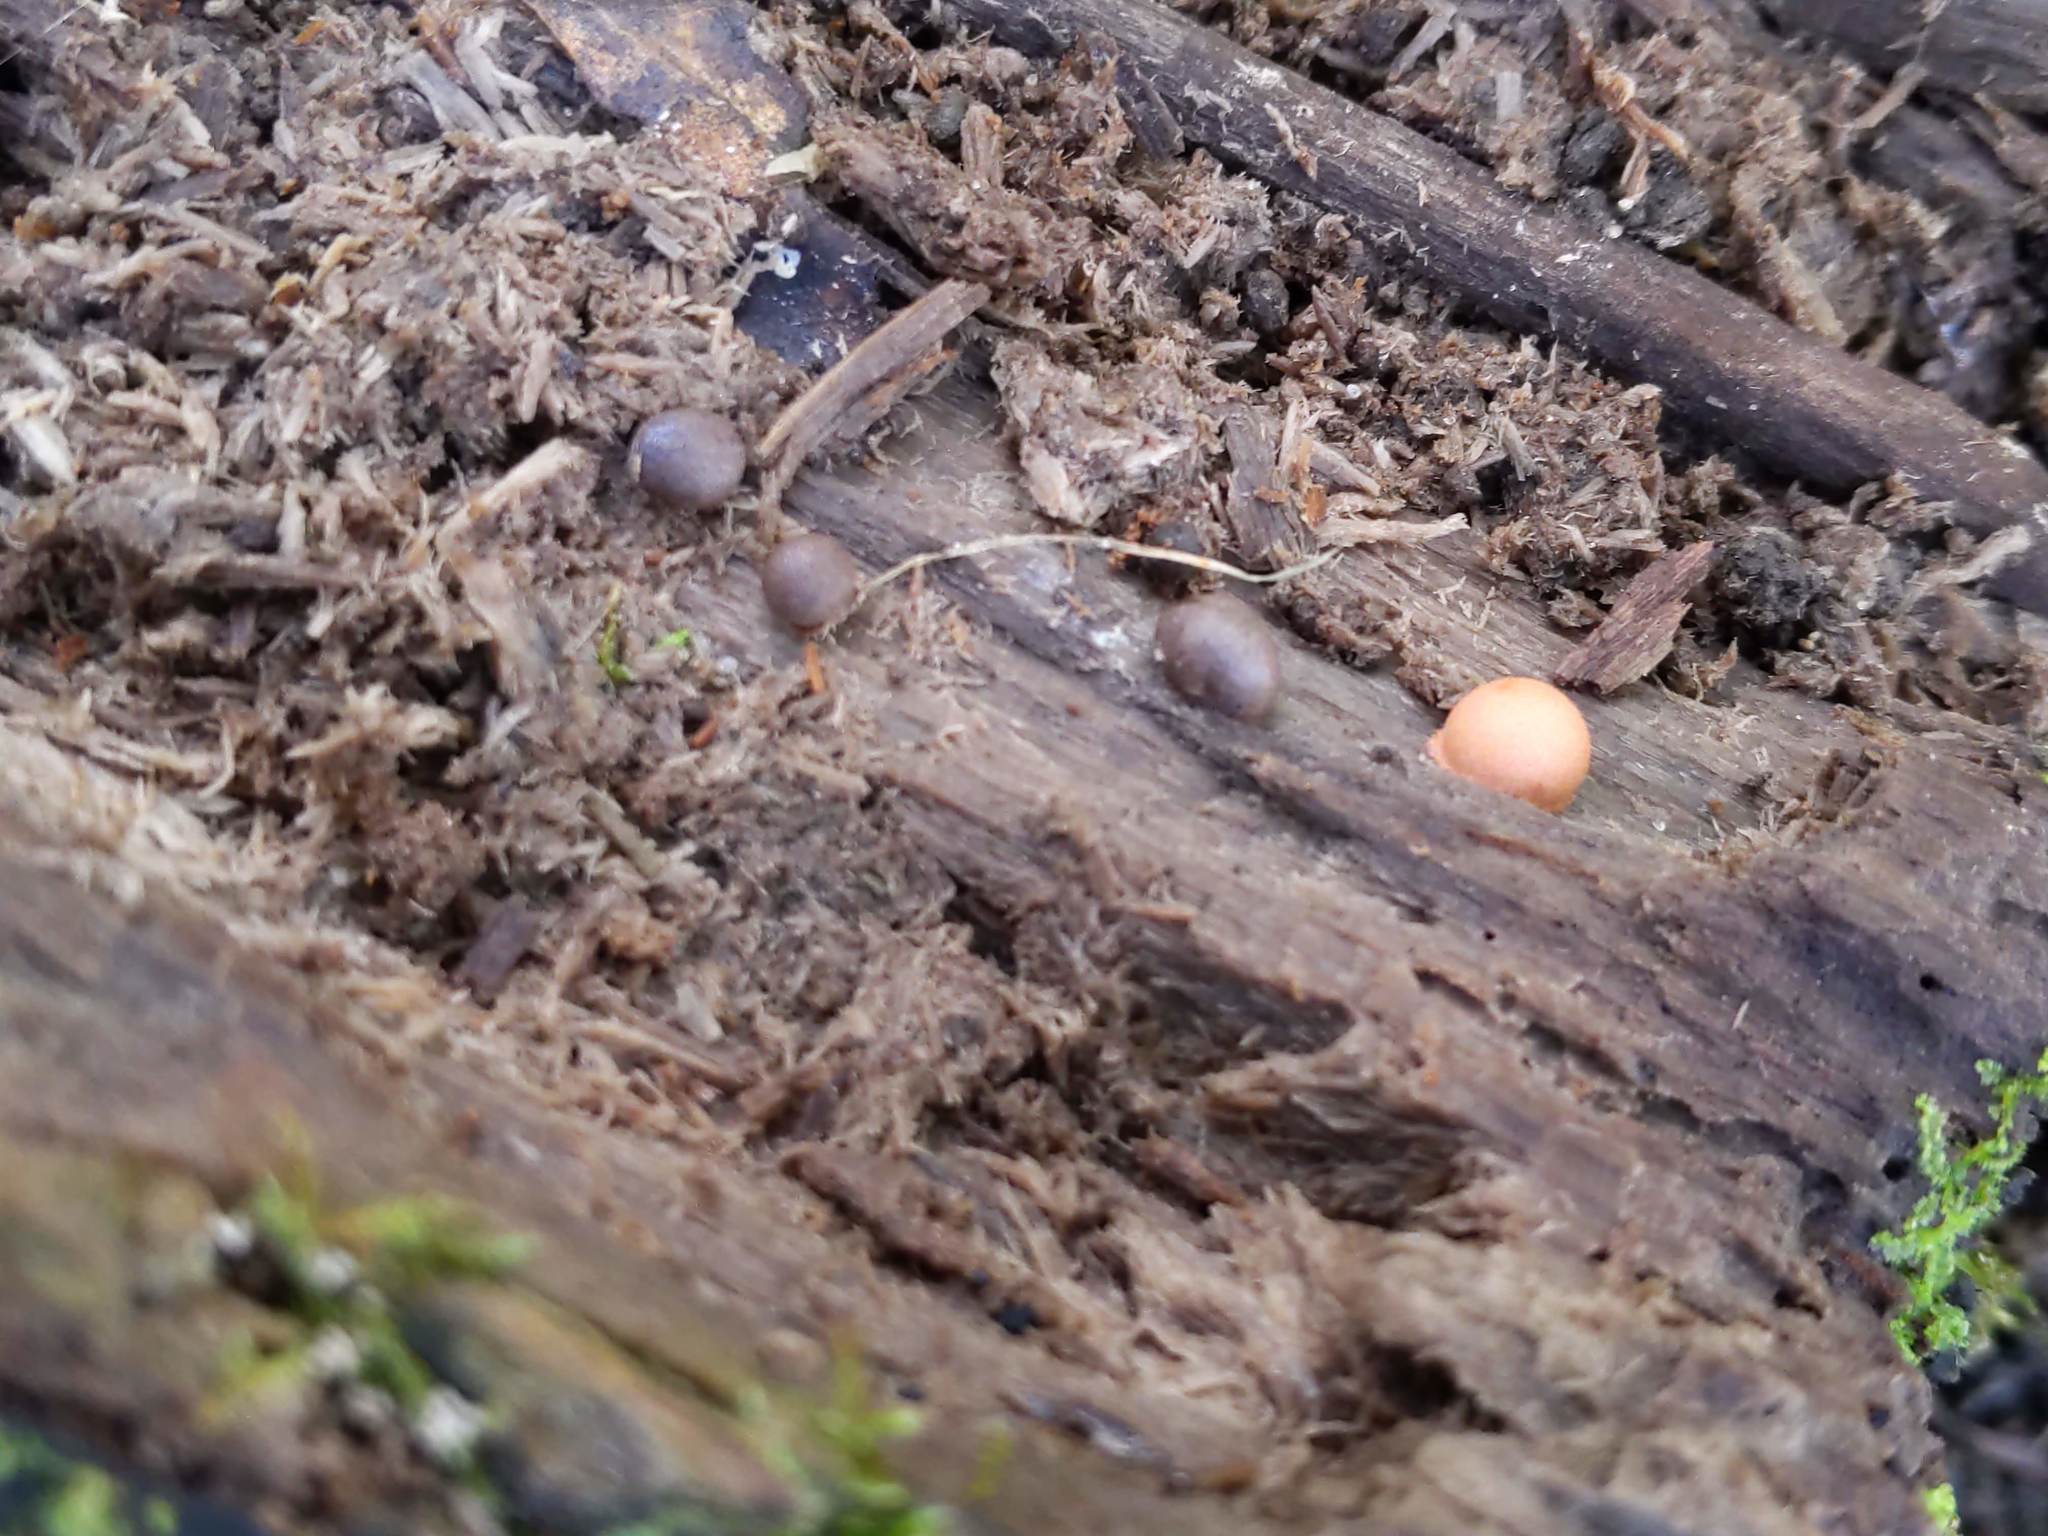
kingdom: Protozoa
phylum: Mycetozoa
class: Myxomycetes
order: Cribrariales
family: Tubiferaceae
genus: Lycogala
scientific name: Lycogala epidendrum
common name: Wolf's milk
